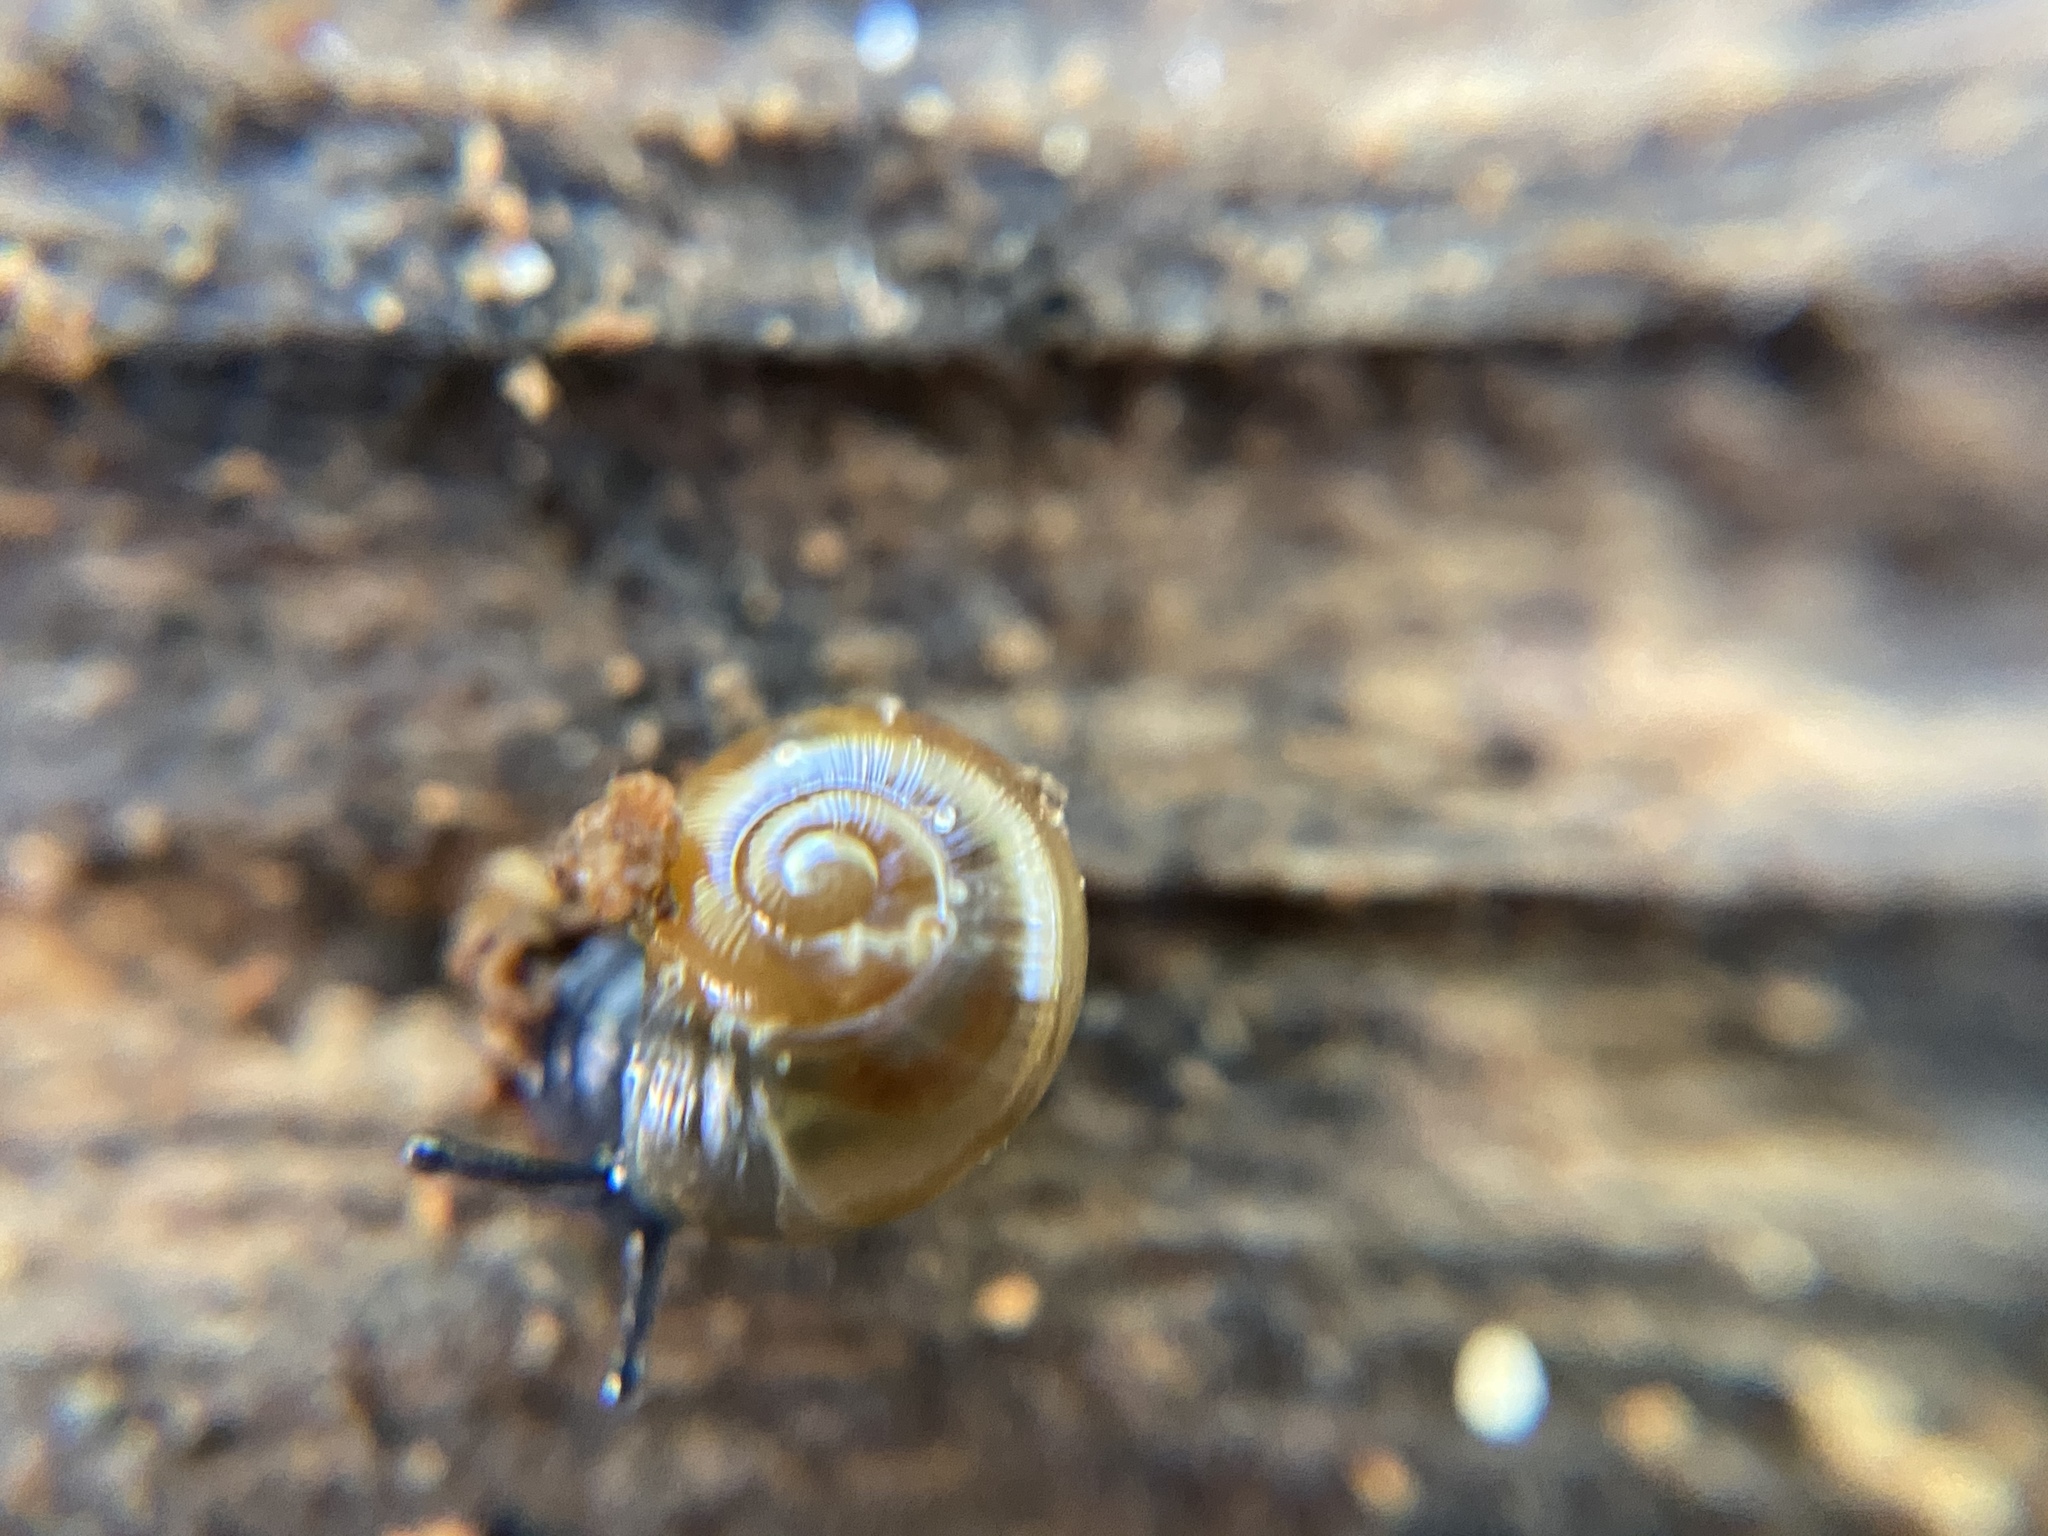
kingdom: Animalia
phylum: Mollusca
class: Gastropoda
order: Stylommatophora
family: Gastrodontidae
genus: Perpolita
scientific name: Perpolita electrina
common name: Amber glass
